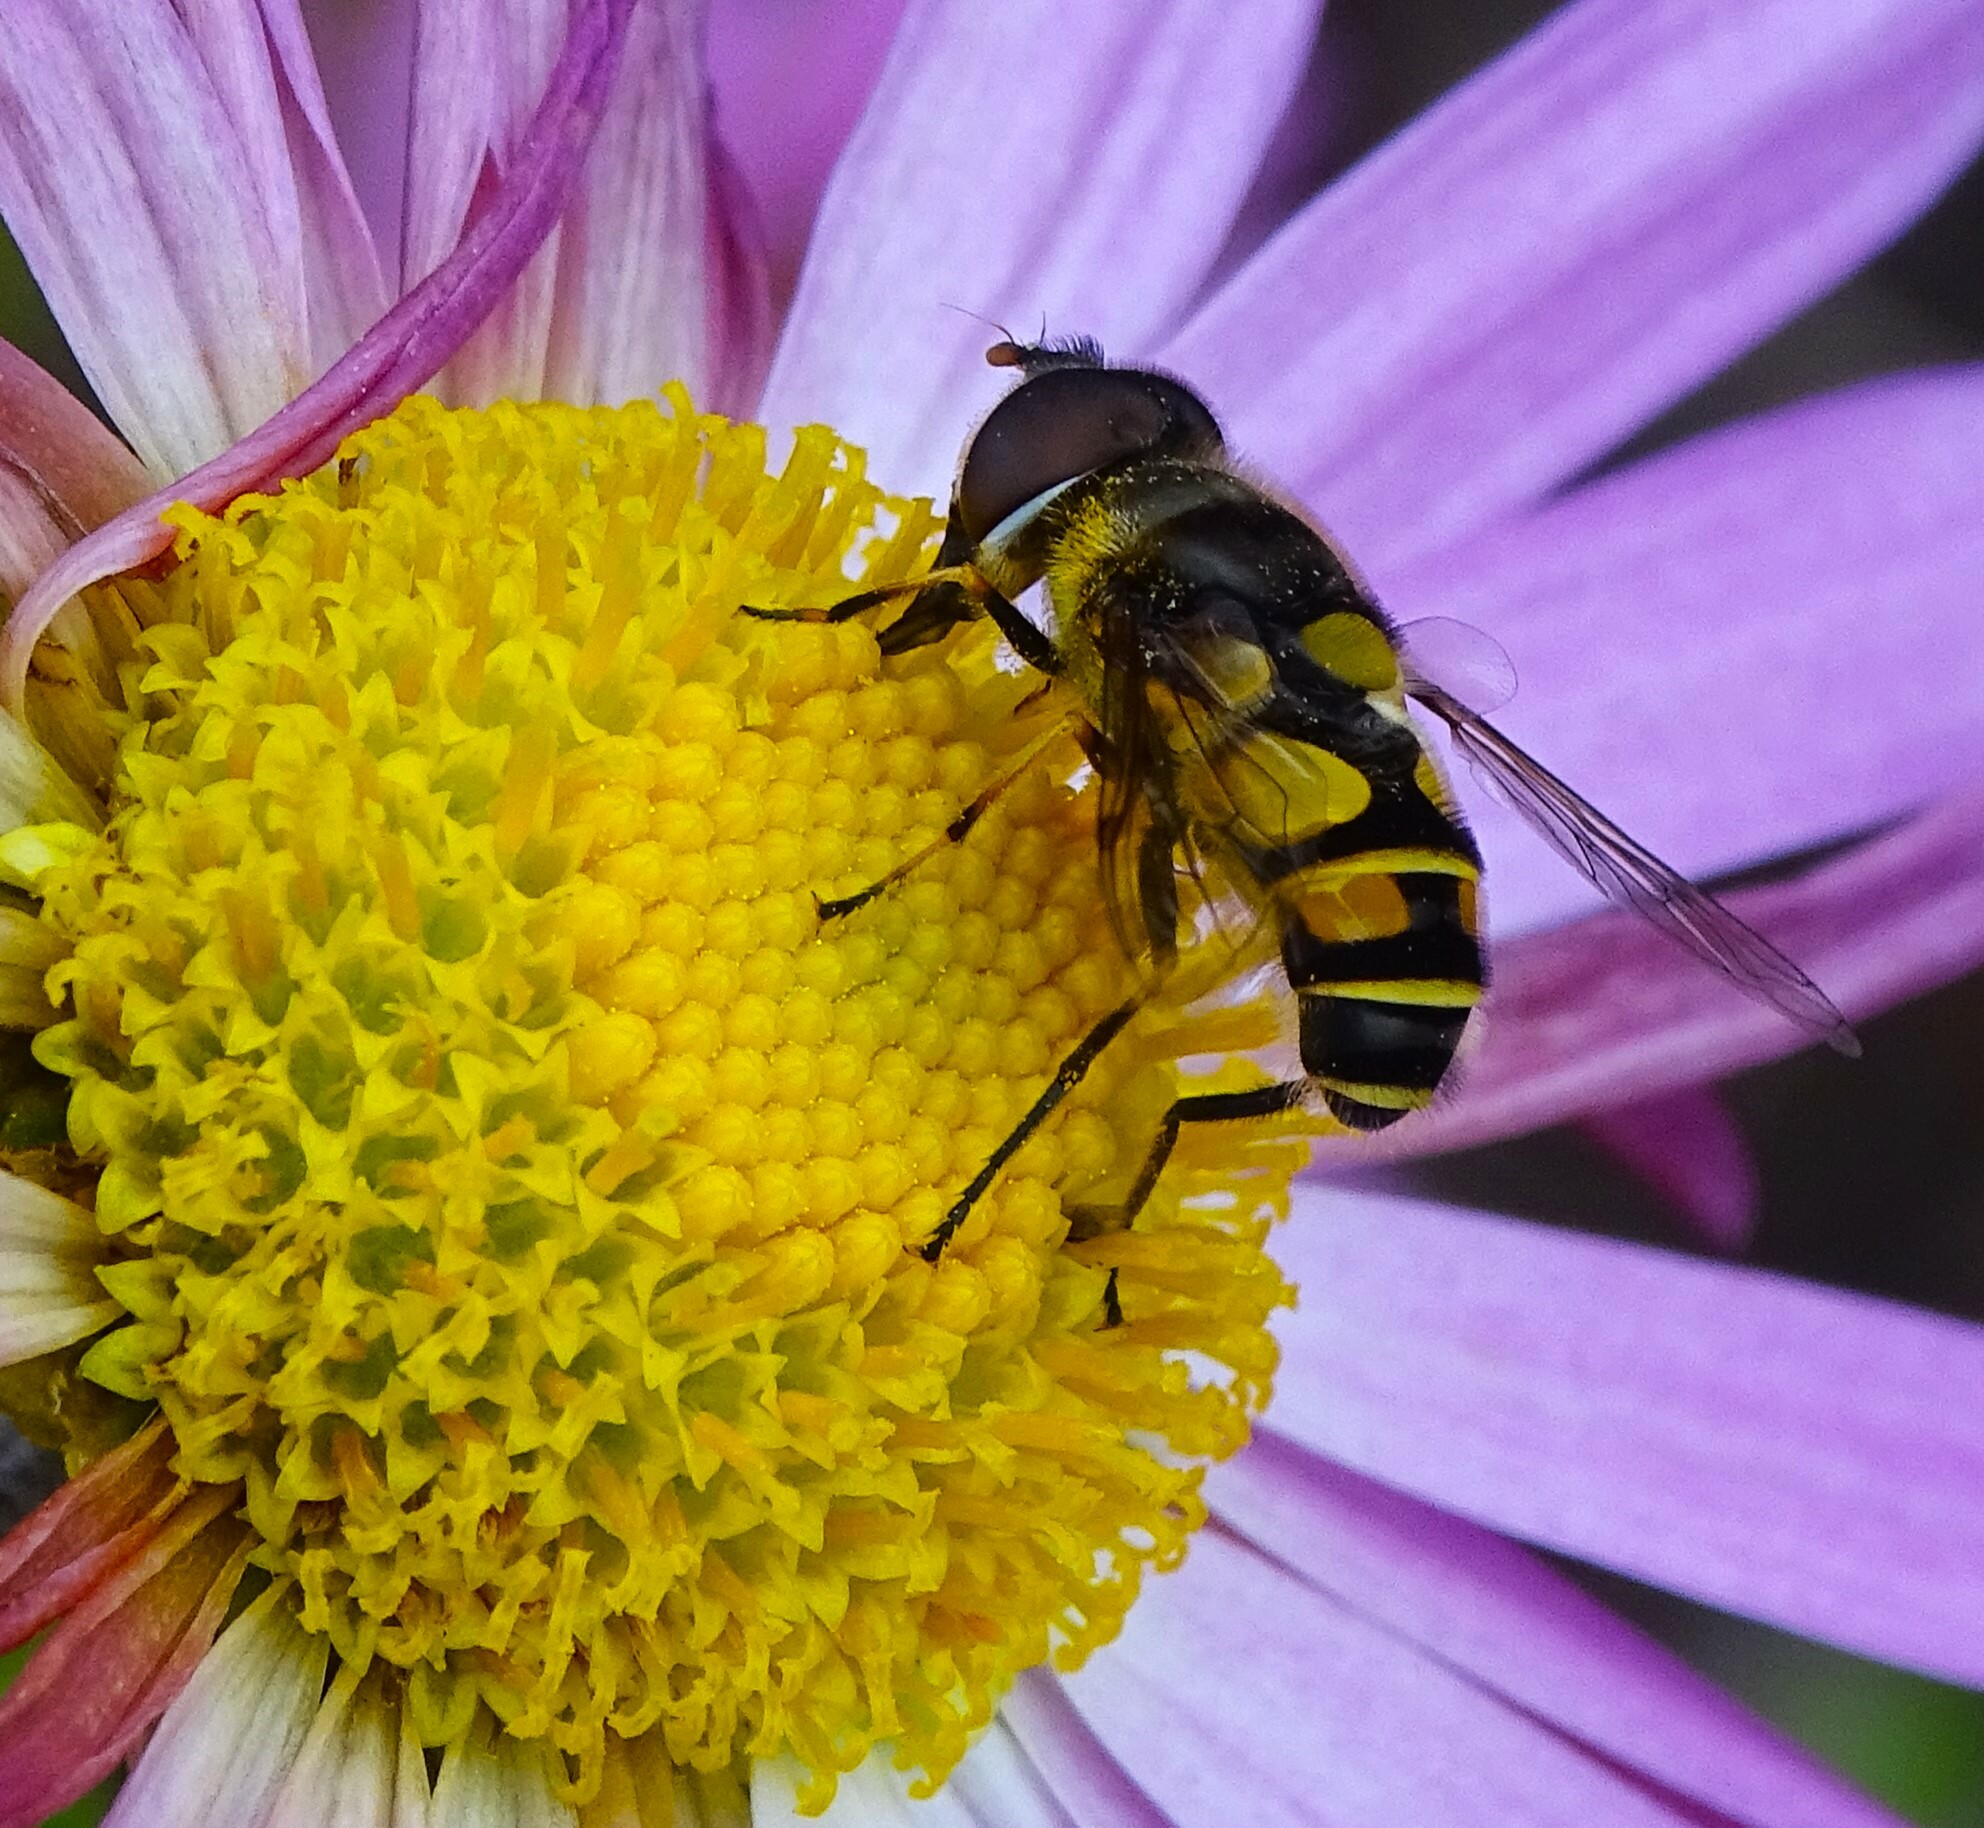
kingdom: Animalia
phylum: Arthropoda
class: Insecta
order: Diptera
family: Syrphidae
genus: Eristalis
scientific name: Eristalis transversa
